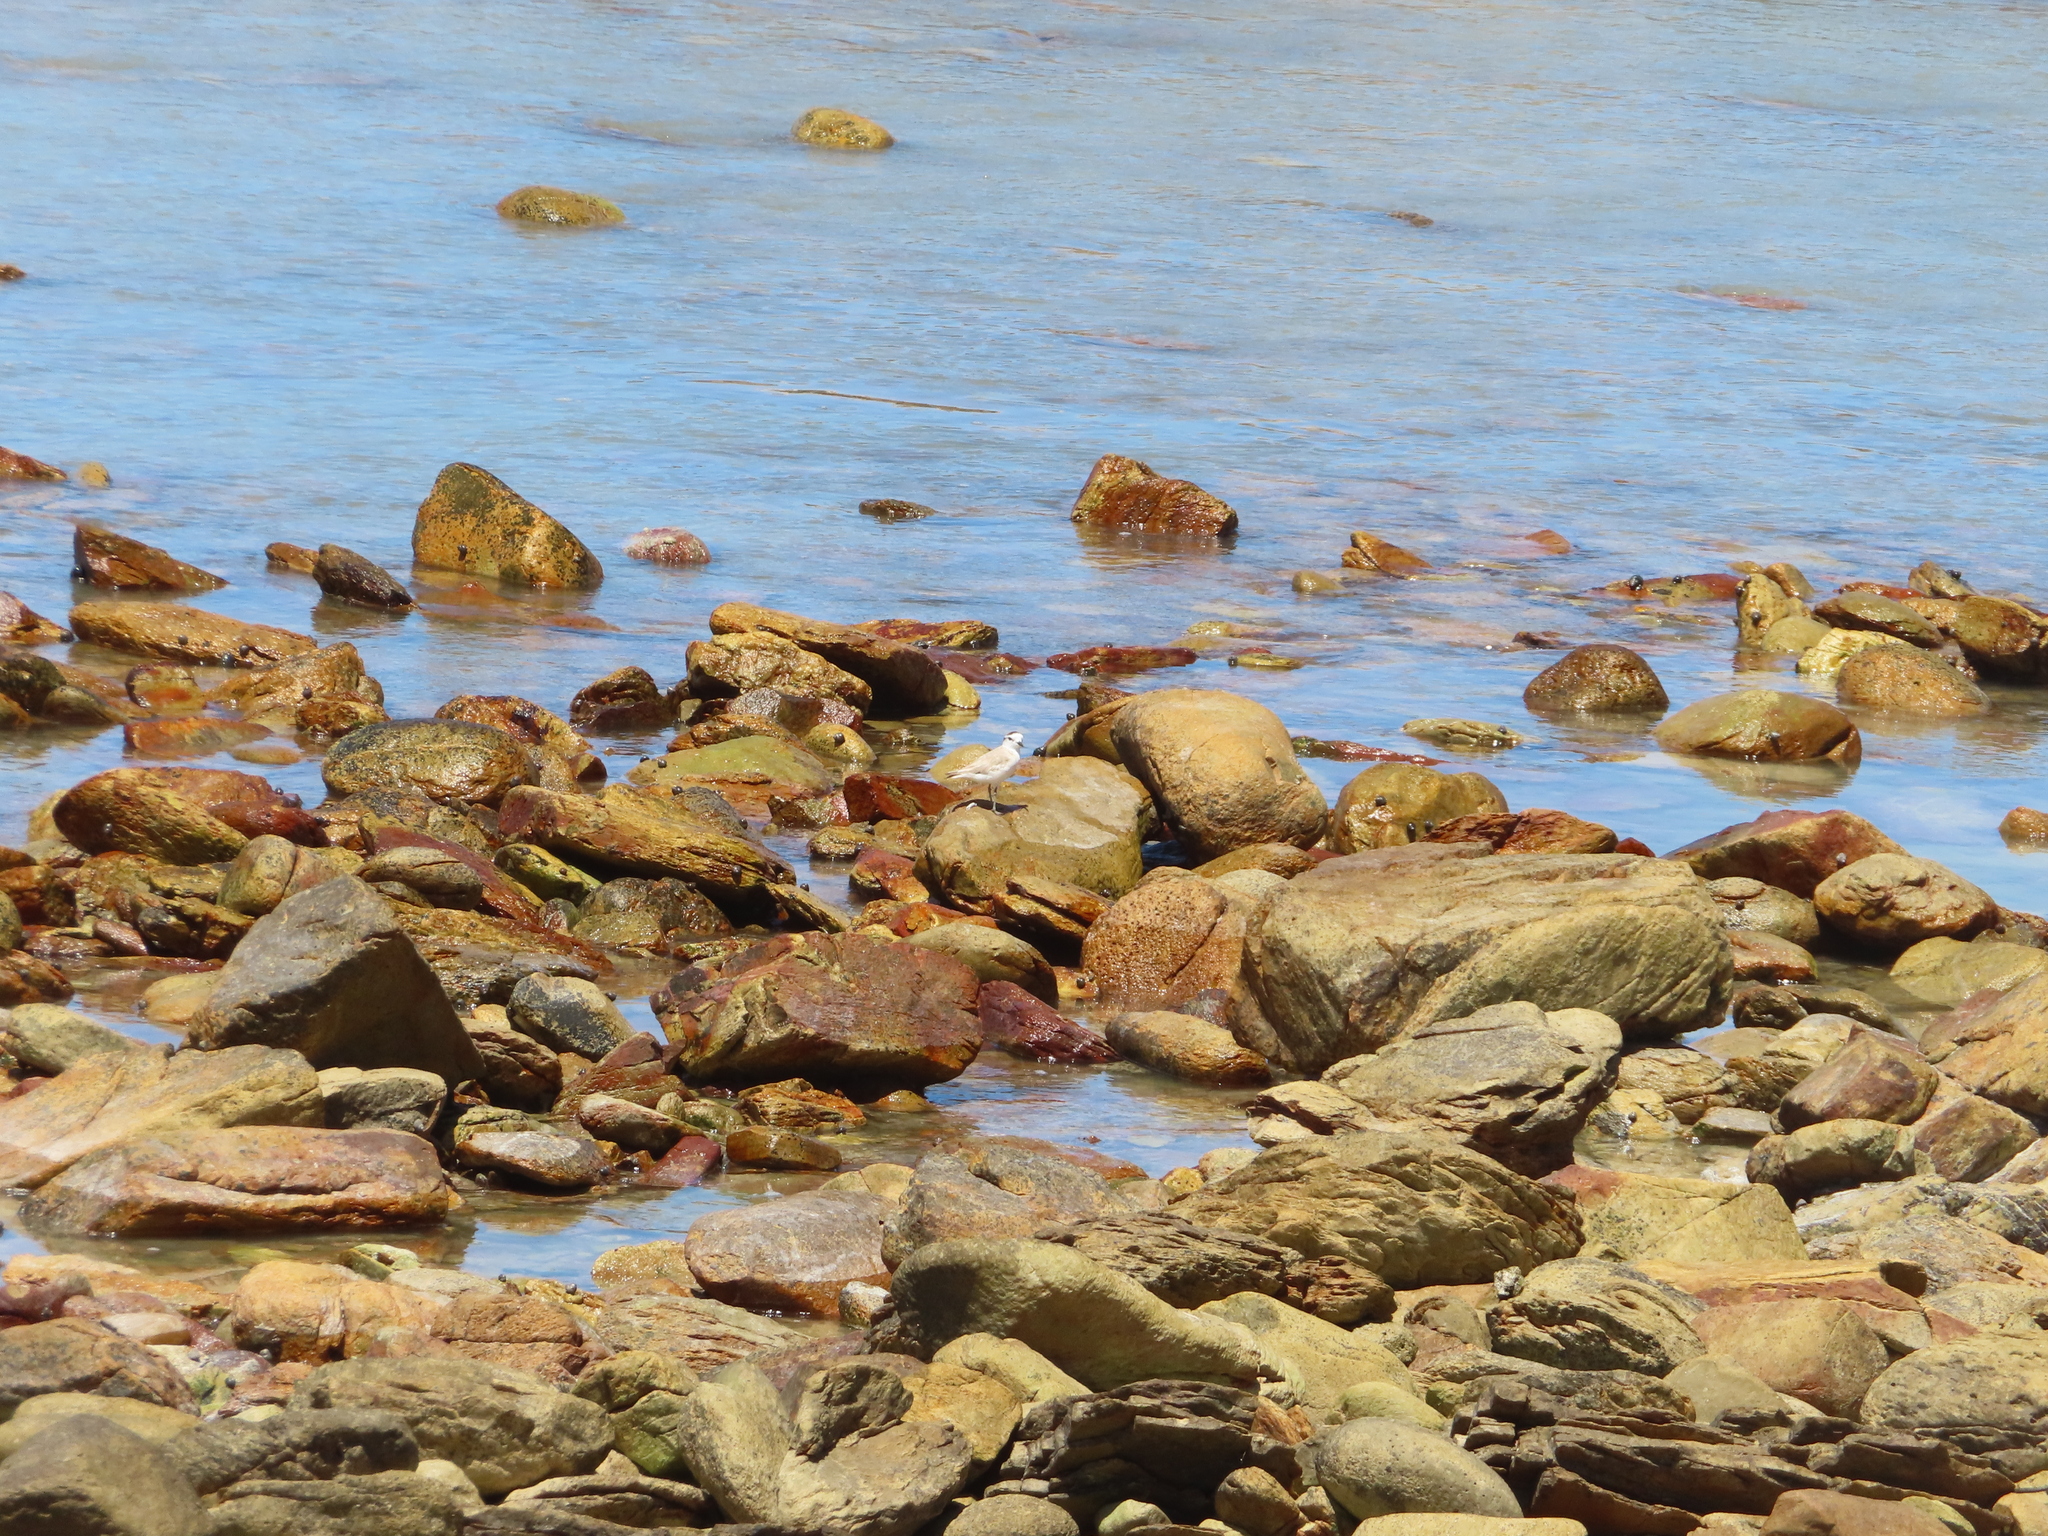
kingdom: Animalia
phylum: Chordata
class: Aves
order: Charadriiformes
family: Charadriidae
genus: Anarhynchus
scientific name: Anarhynchus
